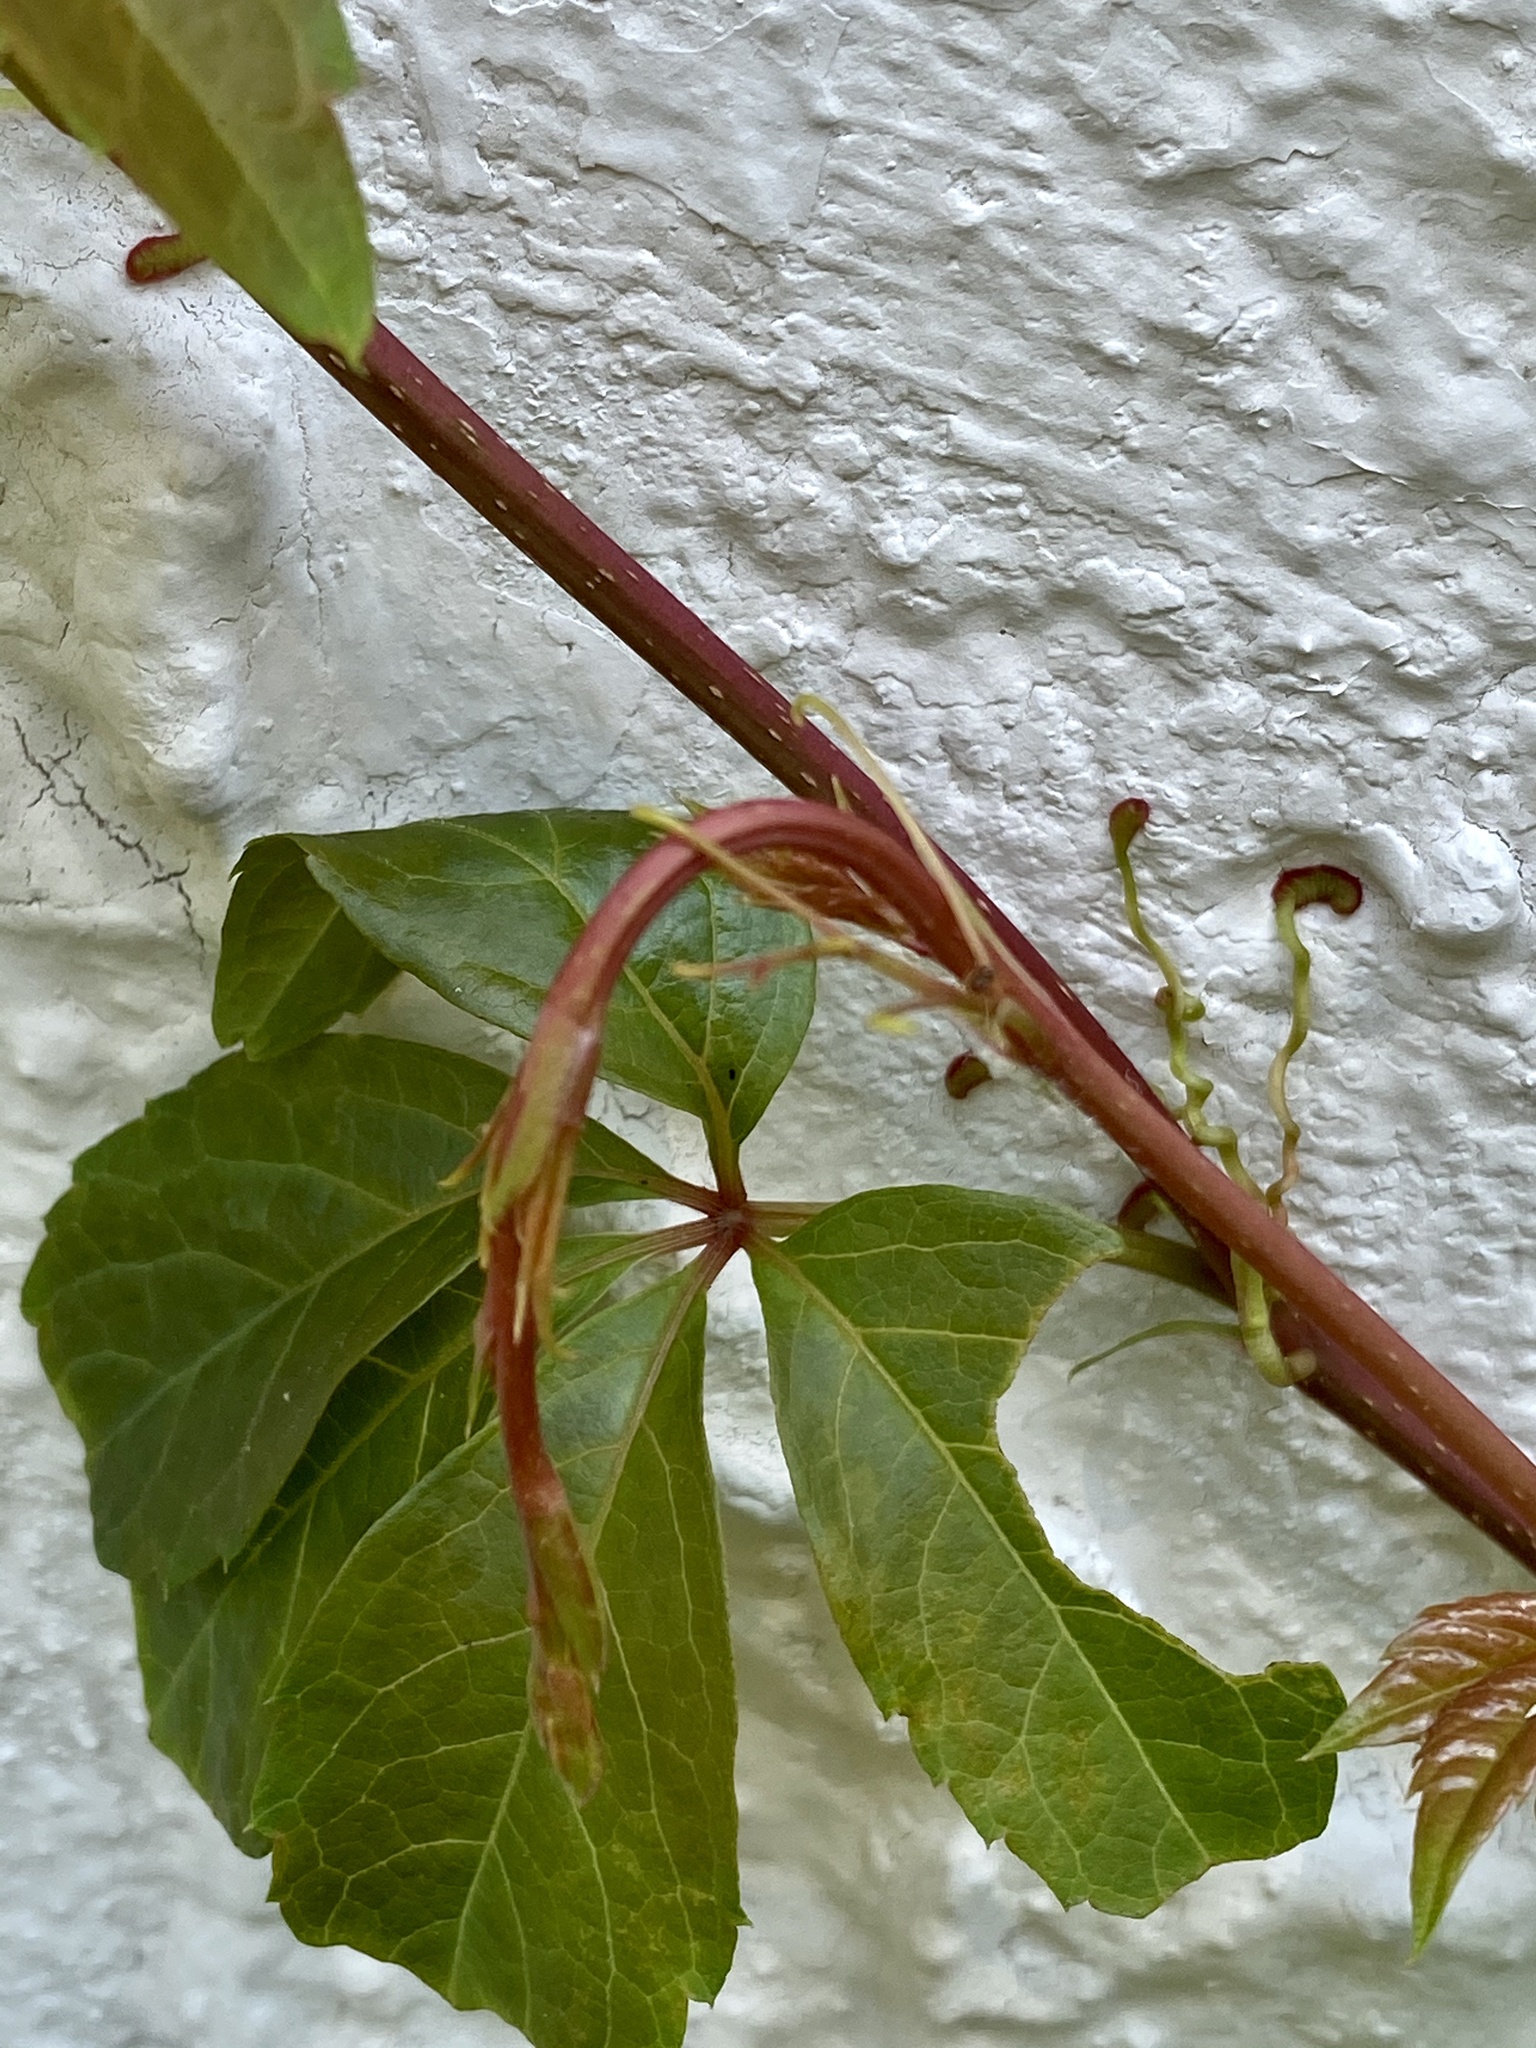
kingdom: Plantae
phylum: Tracheophyta
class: Magnoliopsida
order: Vitales
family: Vitaceae
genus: Parthenocissus
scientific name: Parthenocissus quinquefolia
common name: Virginia-creeper
